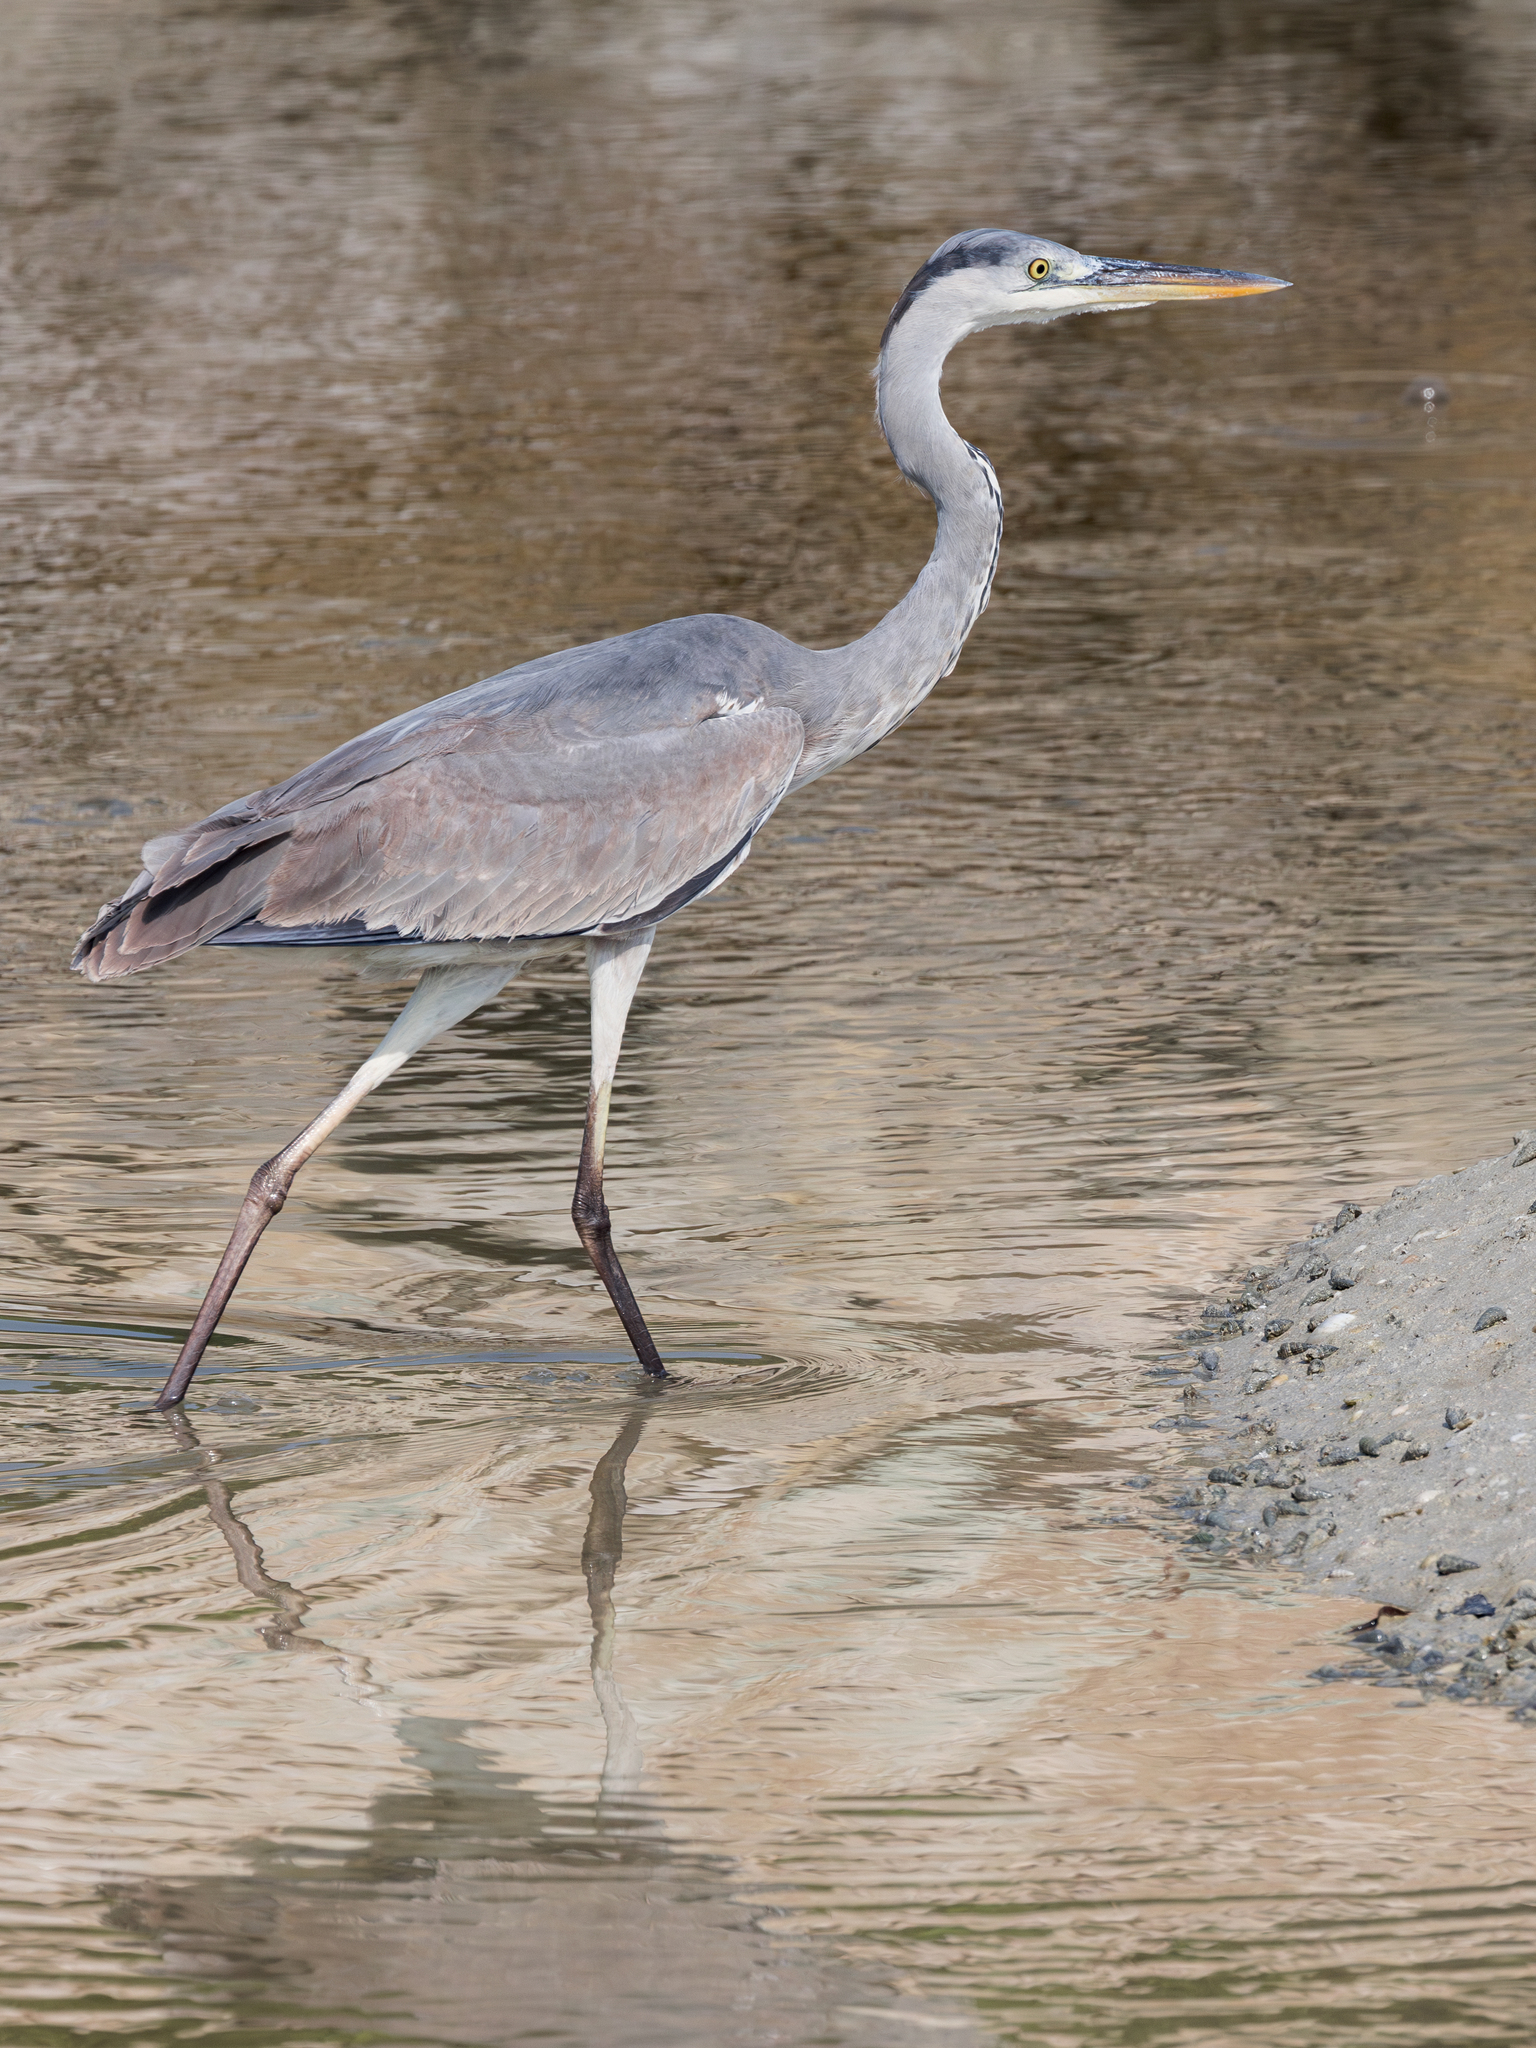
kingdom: Animalia
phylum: Chordata
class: Aves
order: Pelecaniformes
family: Ardeidae
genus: Ardea
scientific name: Ardea cinerea
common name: Grey heron
